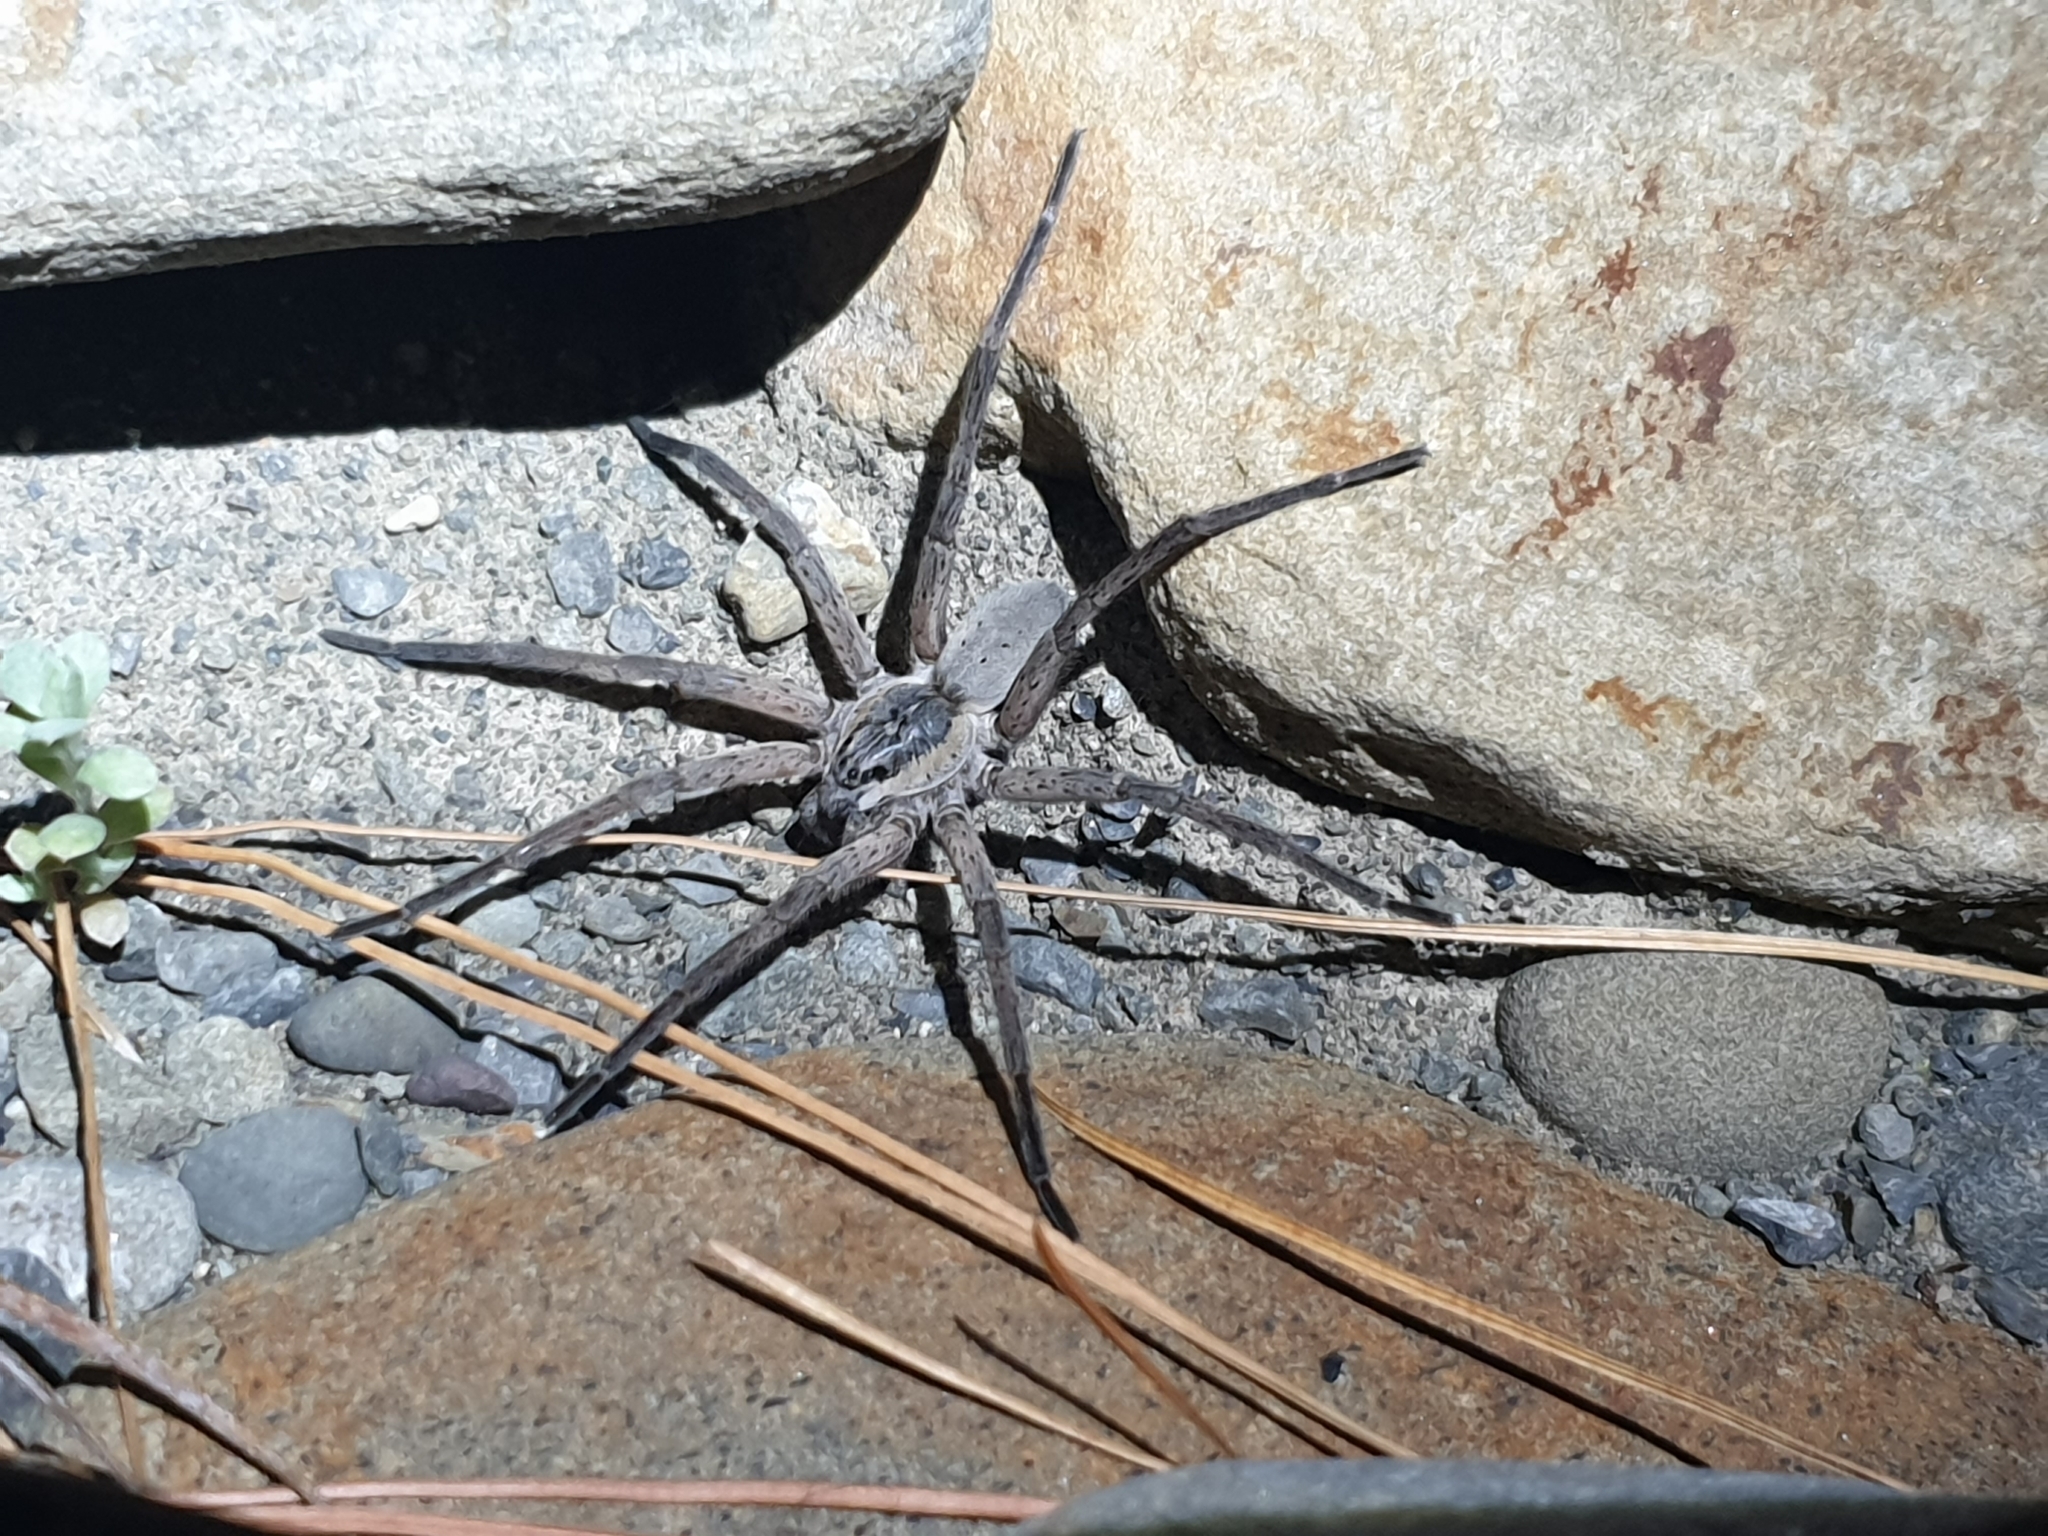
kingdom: Animalia
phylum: Arthropoda
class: Arachnida
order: Araneae
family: Pisauridae
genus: Dolomedes
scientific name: Dolomedes aquaticus
